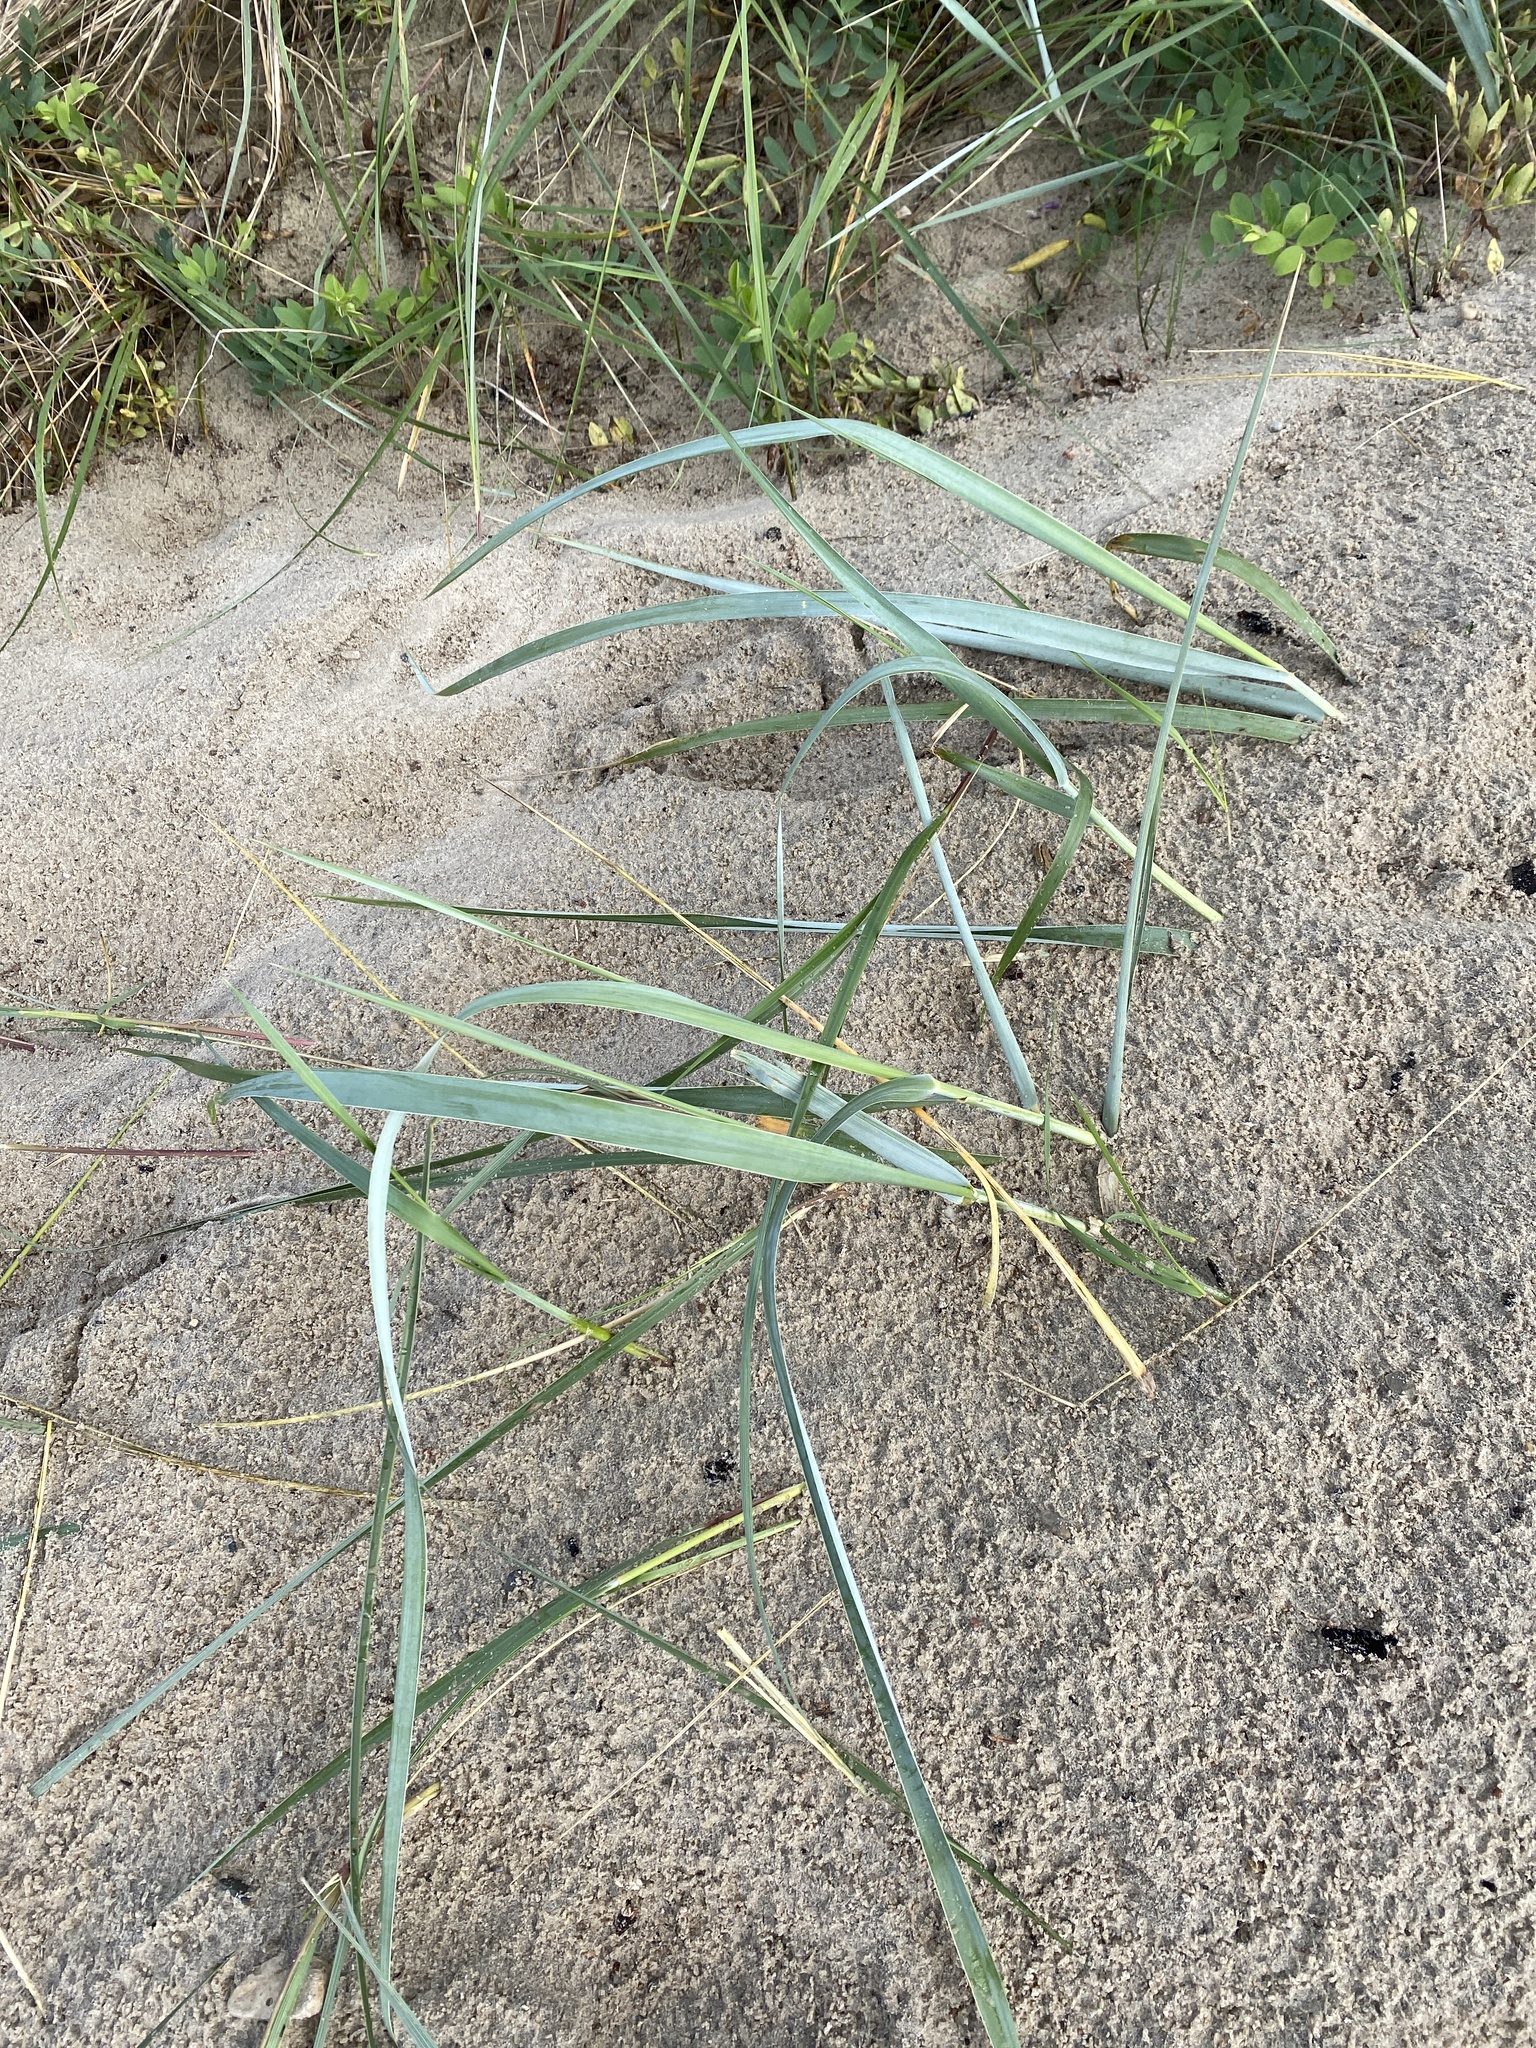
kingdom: Plantae
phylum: Tracheophyta
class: Liliopsida
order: Poales
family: Poaceae
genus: Leymus
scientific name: Leymus arenarius
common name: Lyme-grass
